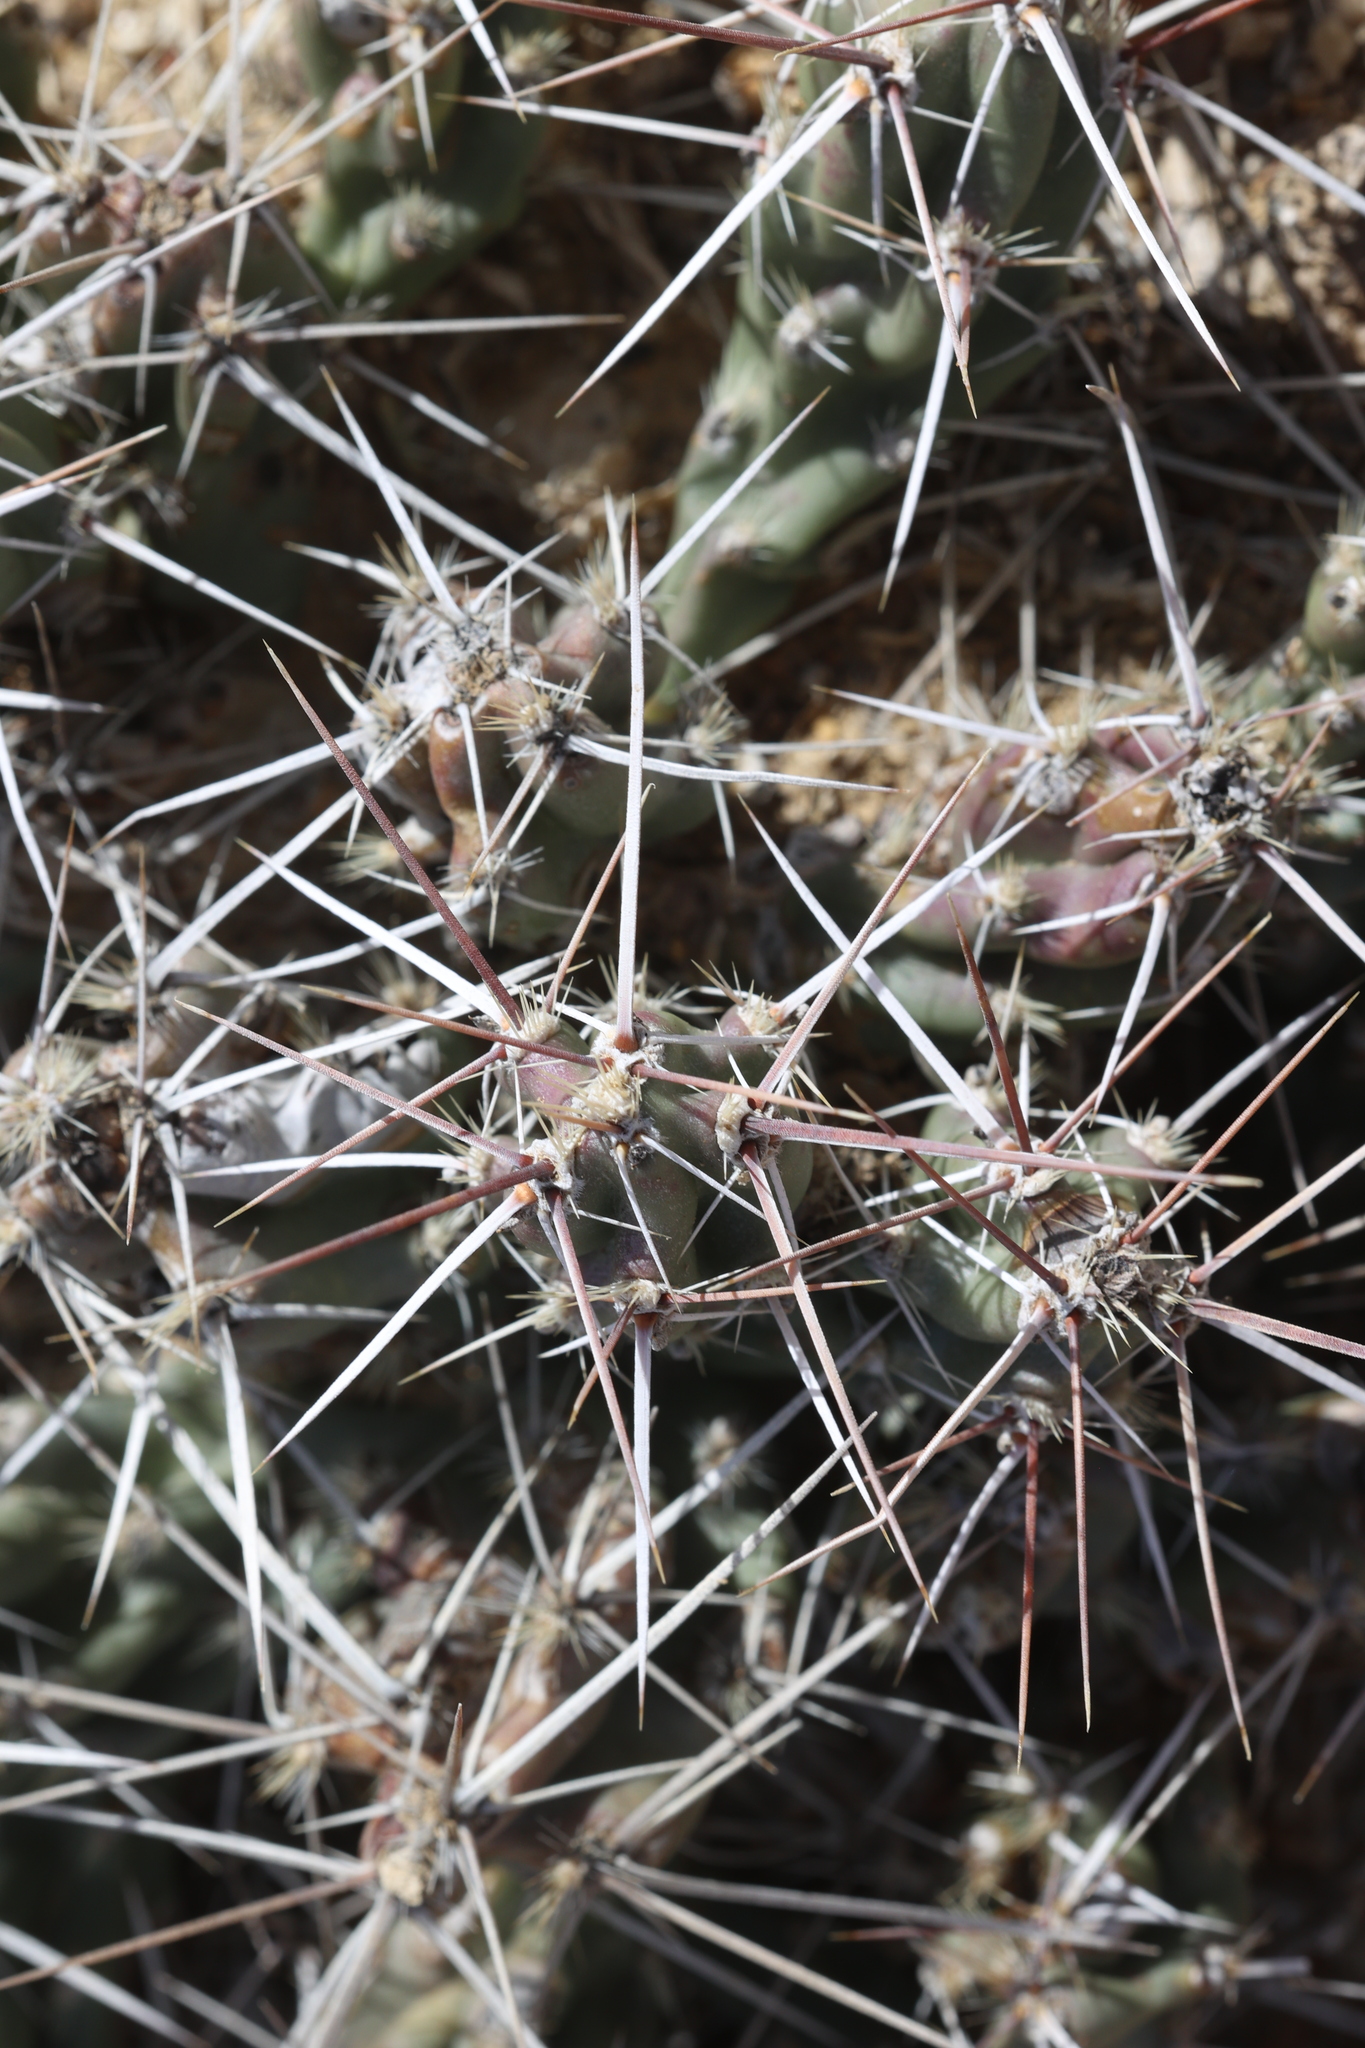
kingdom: Plantae
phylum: Tracheophyta
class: Magnoliopsida
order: Caryophyllales
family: Cactaceae
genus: Grusonia
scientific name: Grusonia aggeria
